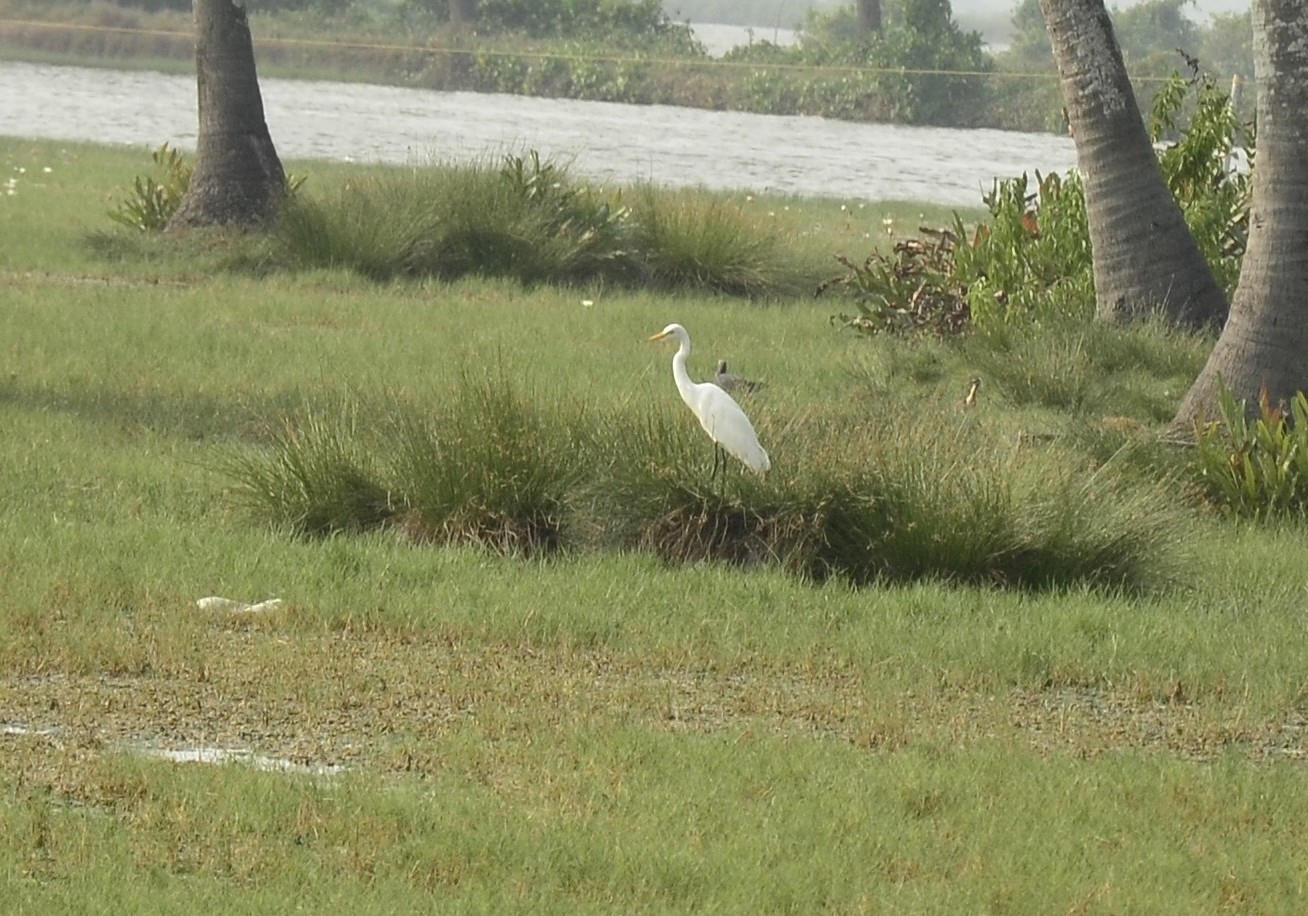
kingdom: Animalia
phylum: Chordata
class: Aves
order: Pelecaniformes
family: Ardeidae
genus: Egretta
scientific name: Egretta intermedia
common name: Intermediate egret
